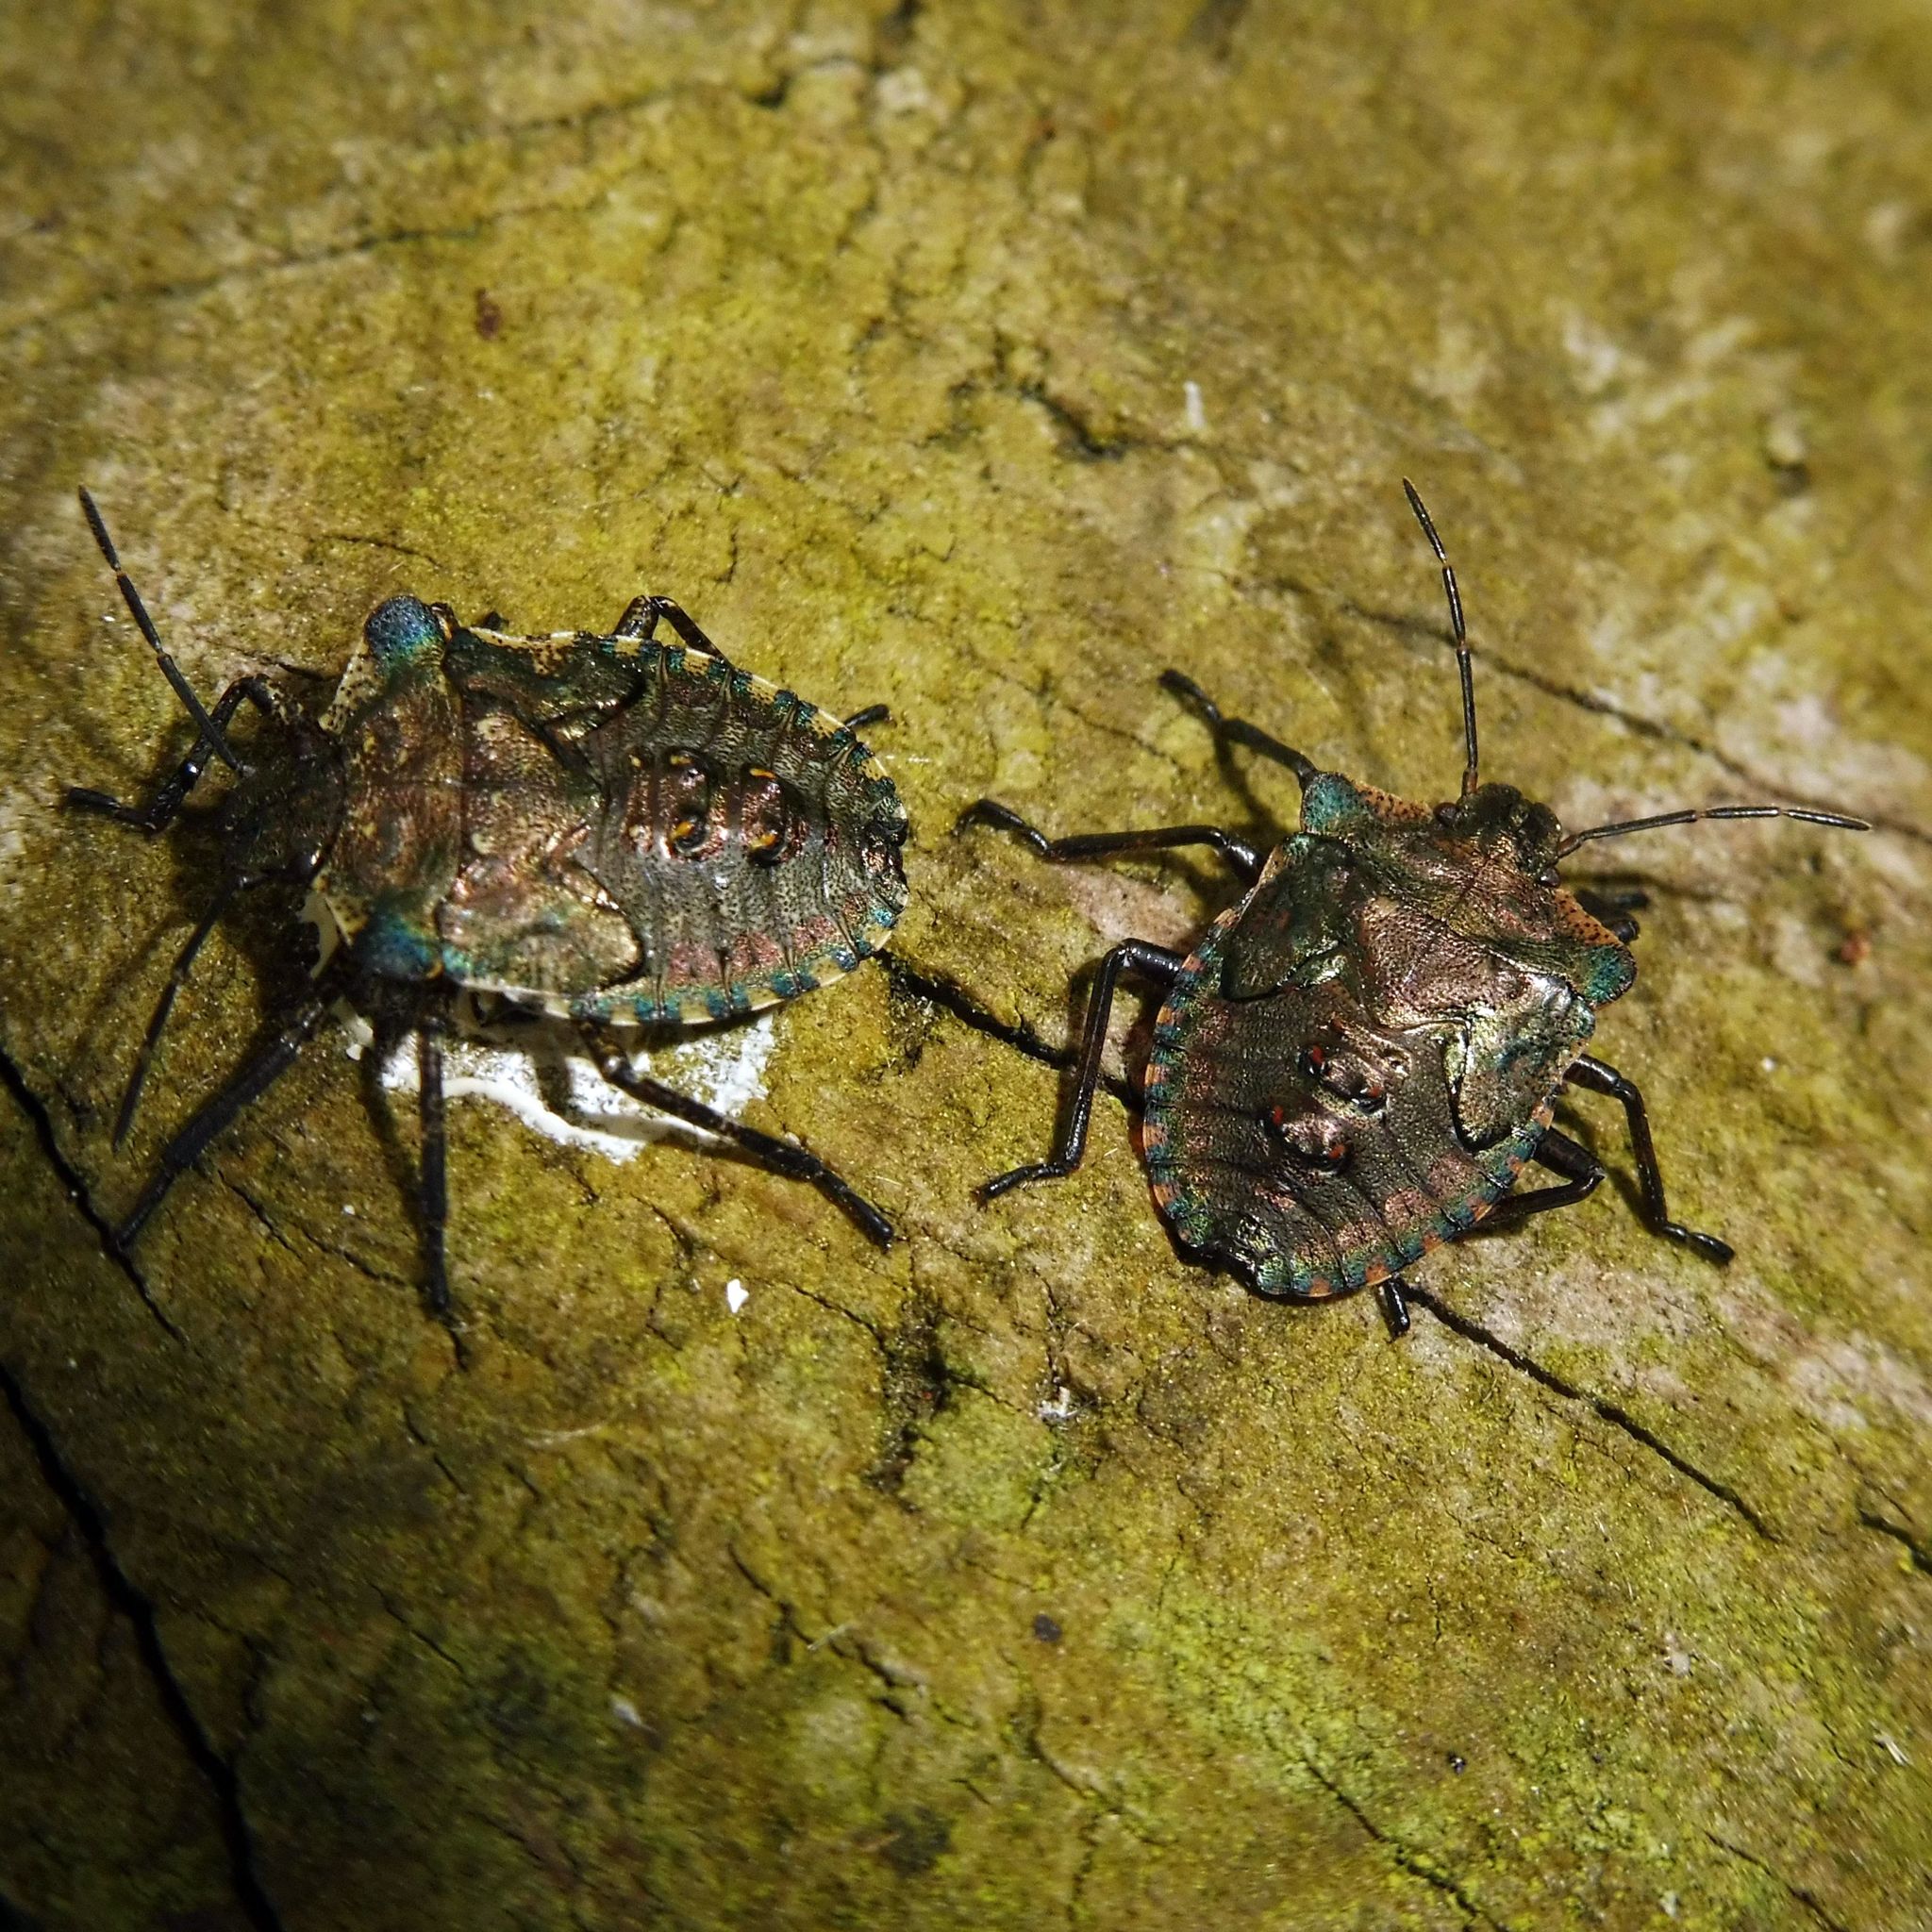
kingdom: Animalia
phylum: Arthropoda
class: Insecta
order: Hemiptera
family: Pentatomidae
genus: Pentatoma
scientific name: Pentatoma rufipes
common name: Forest bug
